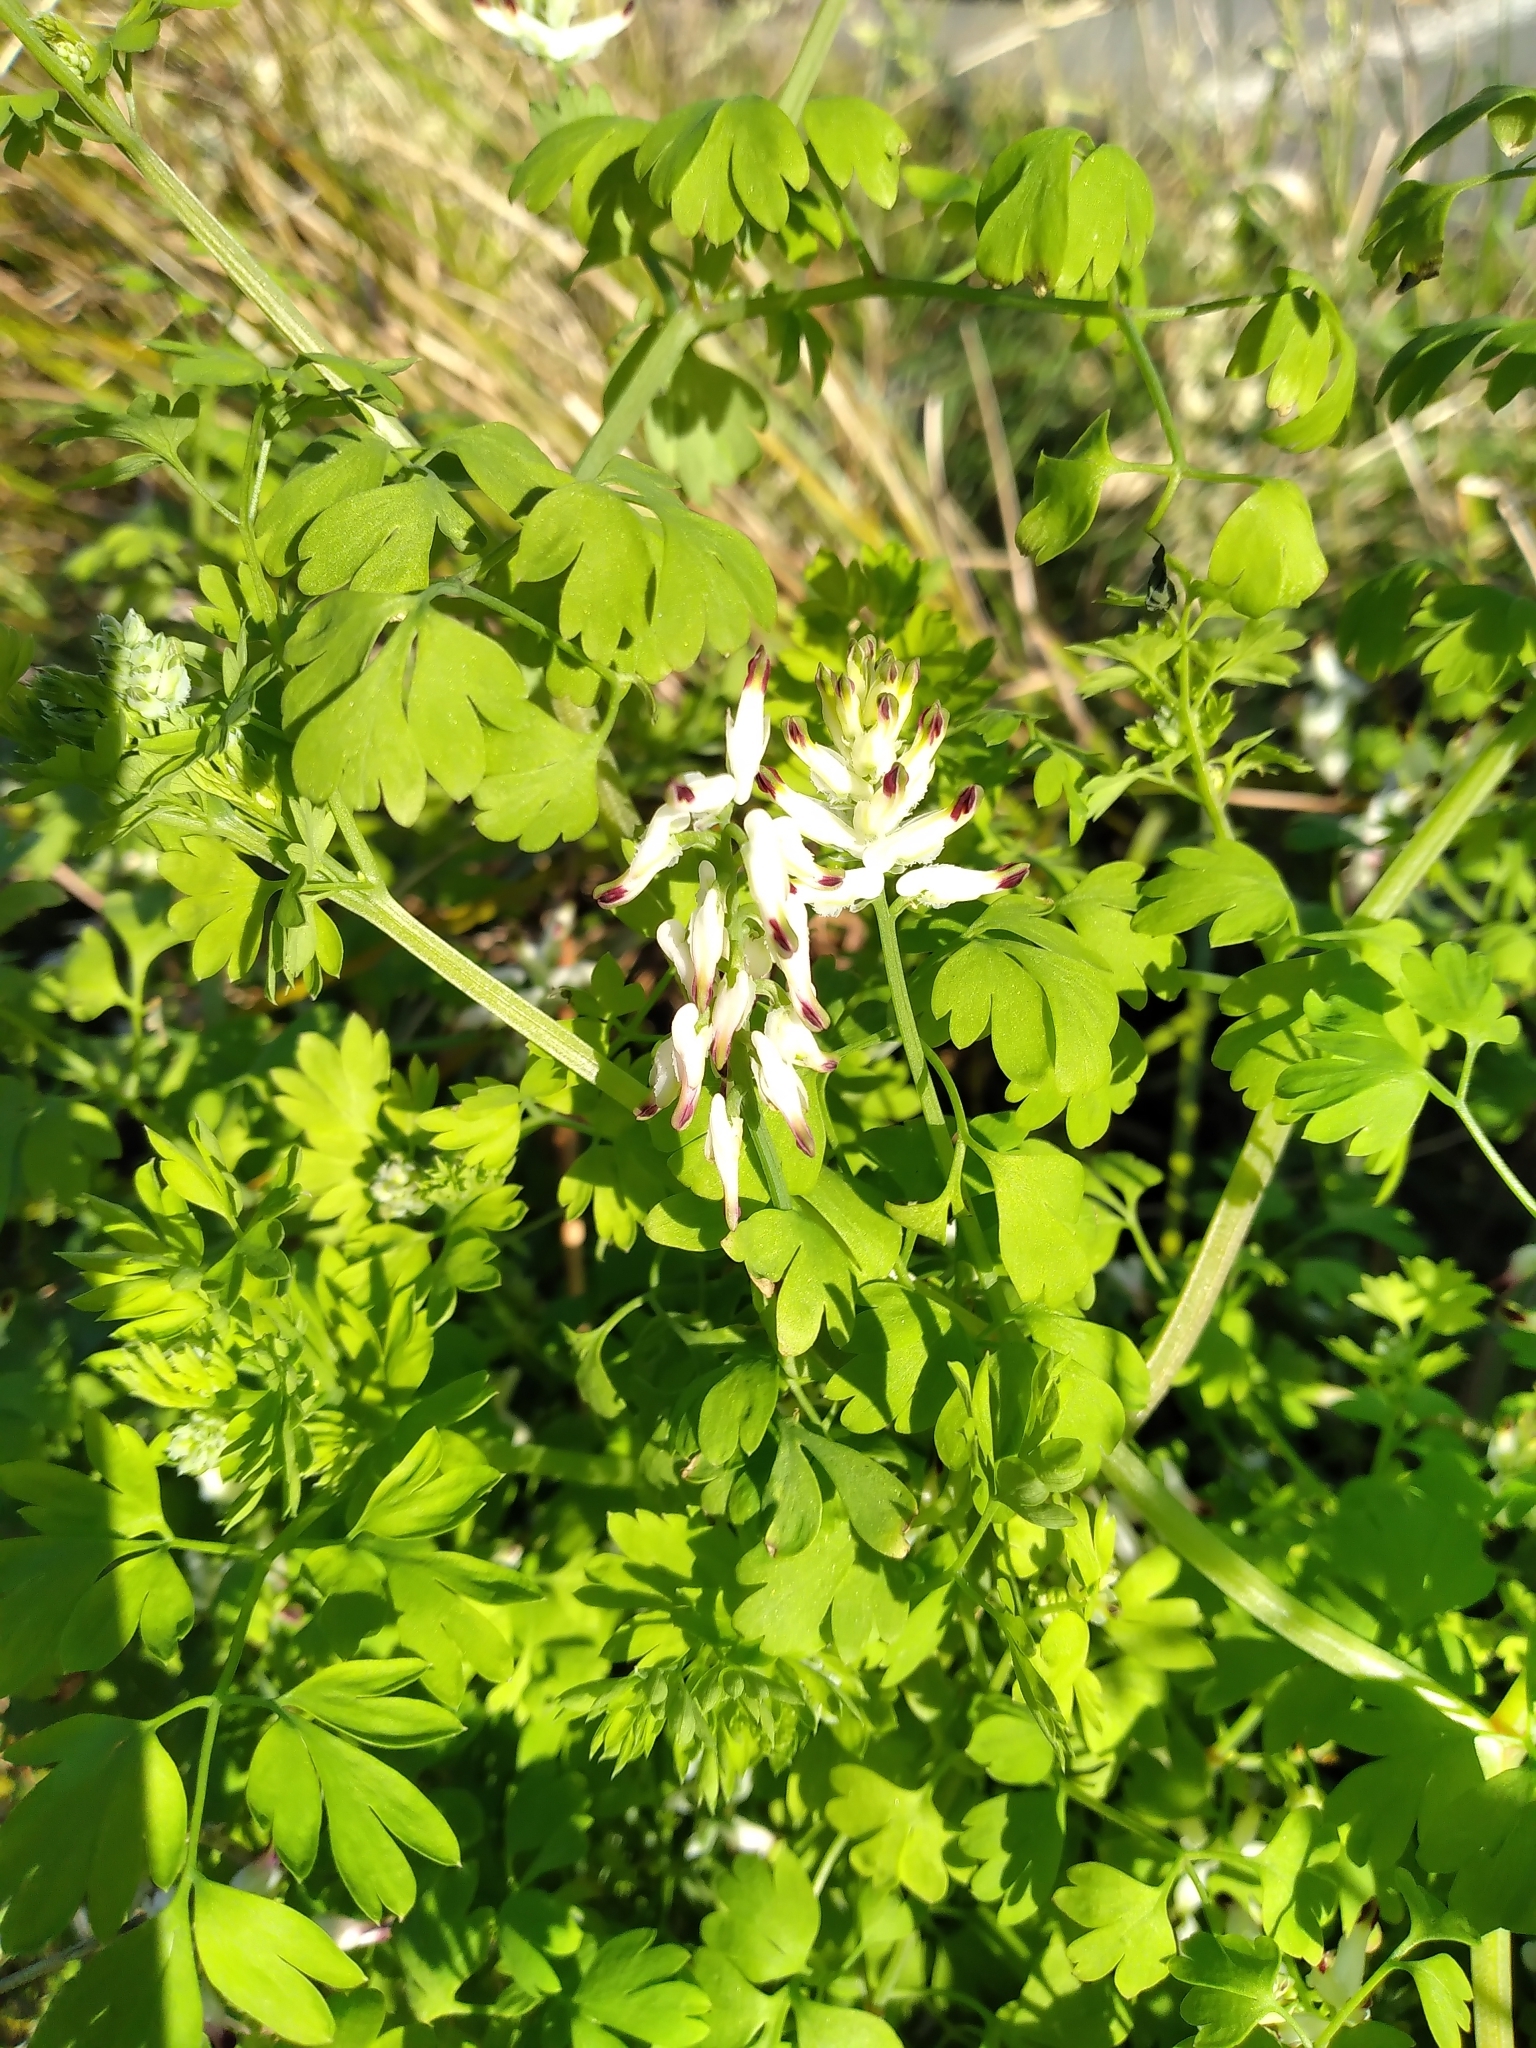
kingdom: Plantae
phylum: Tracheophyta
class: Magnoliopsida
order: Ranunculales
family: Papaveraceae
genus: Fumaria
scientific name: Fumaria capreolata
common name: White ramping-fumitory
